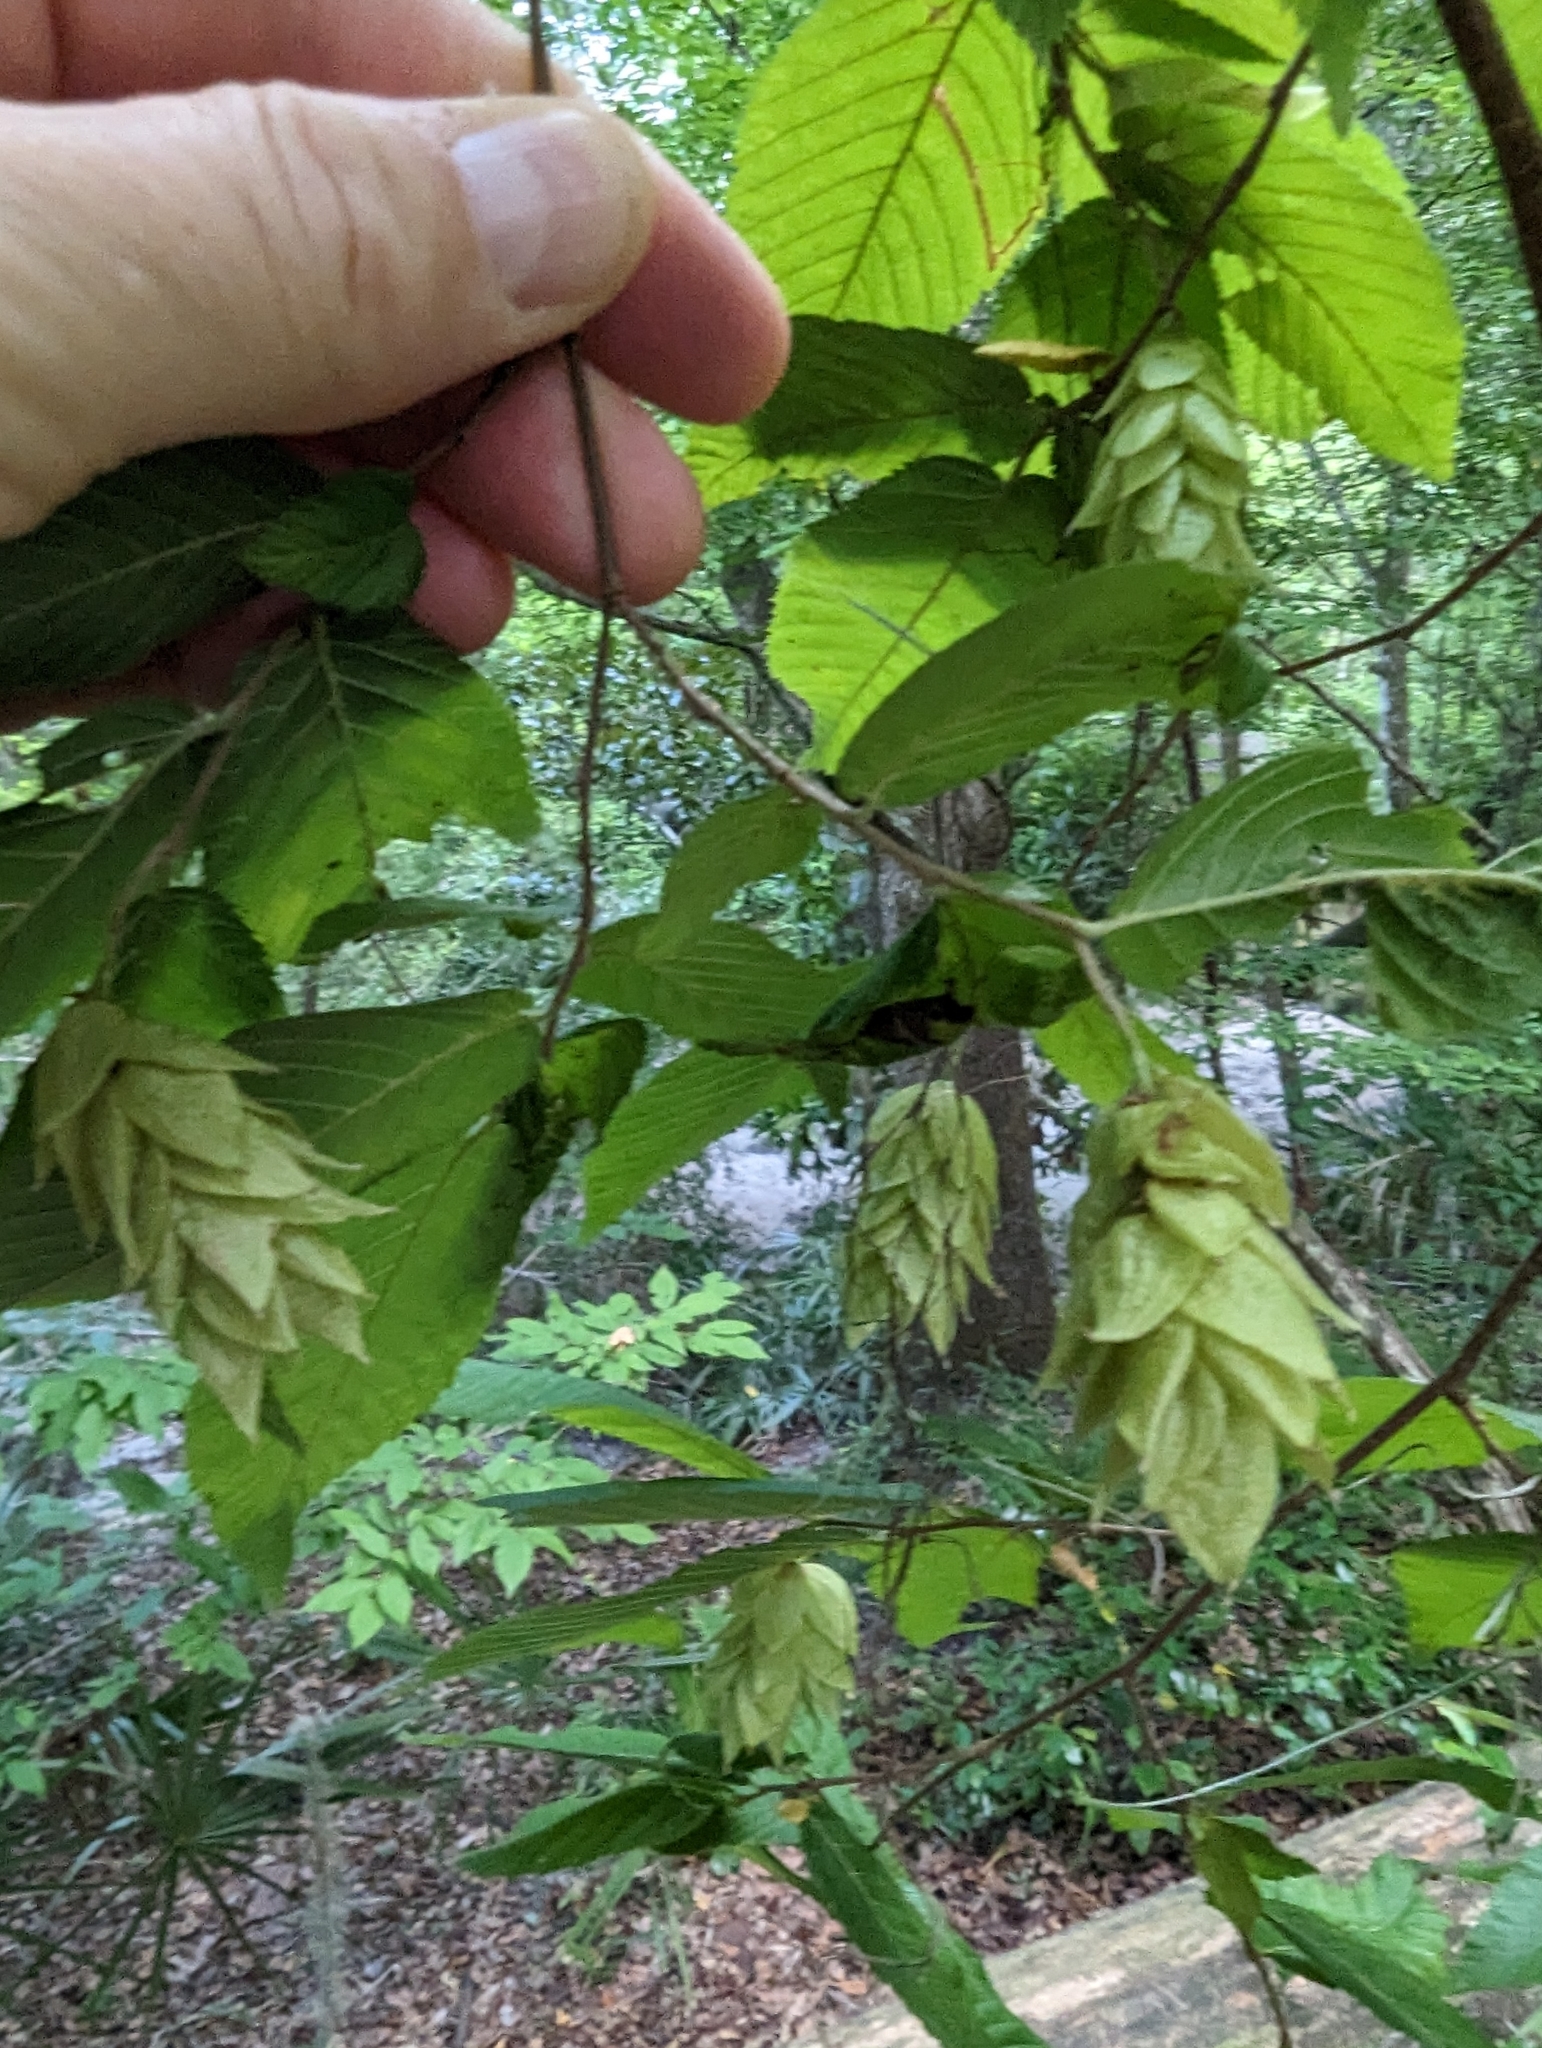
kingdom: Plantae
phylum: Tracheophyta
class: Magnoliopsida
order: Fagales
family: Betulaceae
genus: Ostrya
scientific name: Ostrya virginiana
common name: Ironwood
